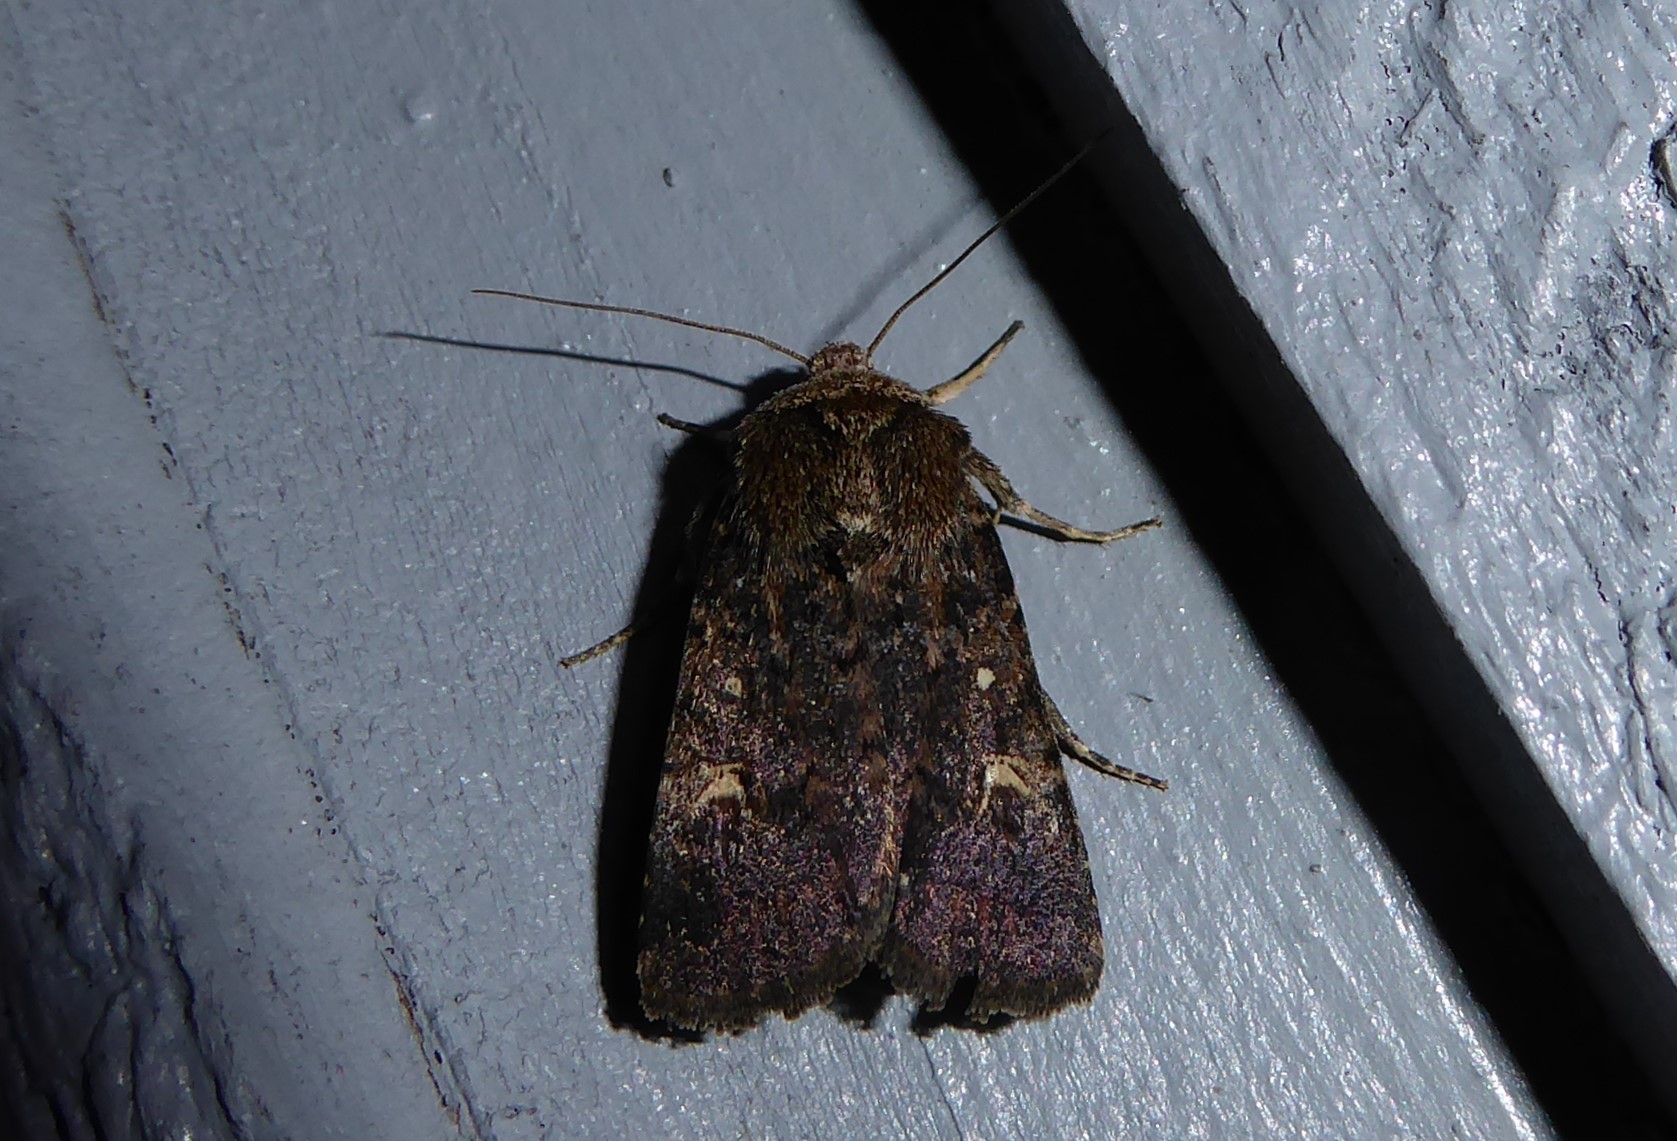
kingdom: Animalia
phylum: Arthropoda
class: Insecta
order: Lepidoptera
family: Noctuidae
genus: Proteuxoa
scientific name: Proteuxoa tetronycha
